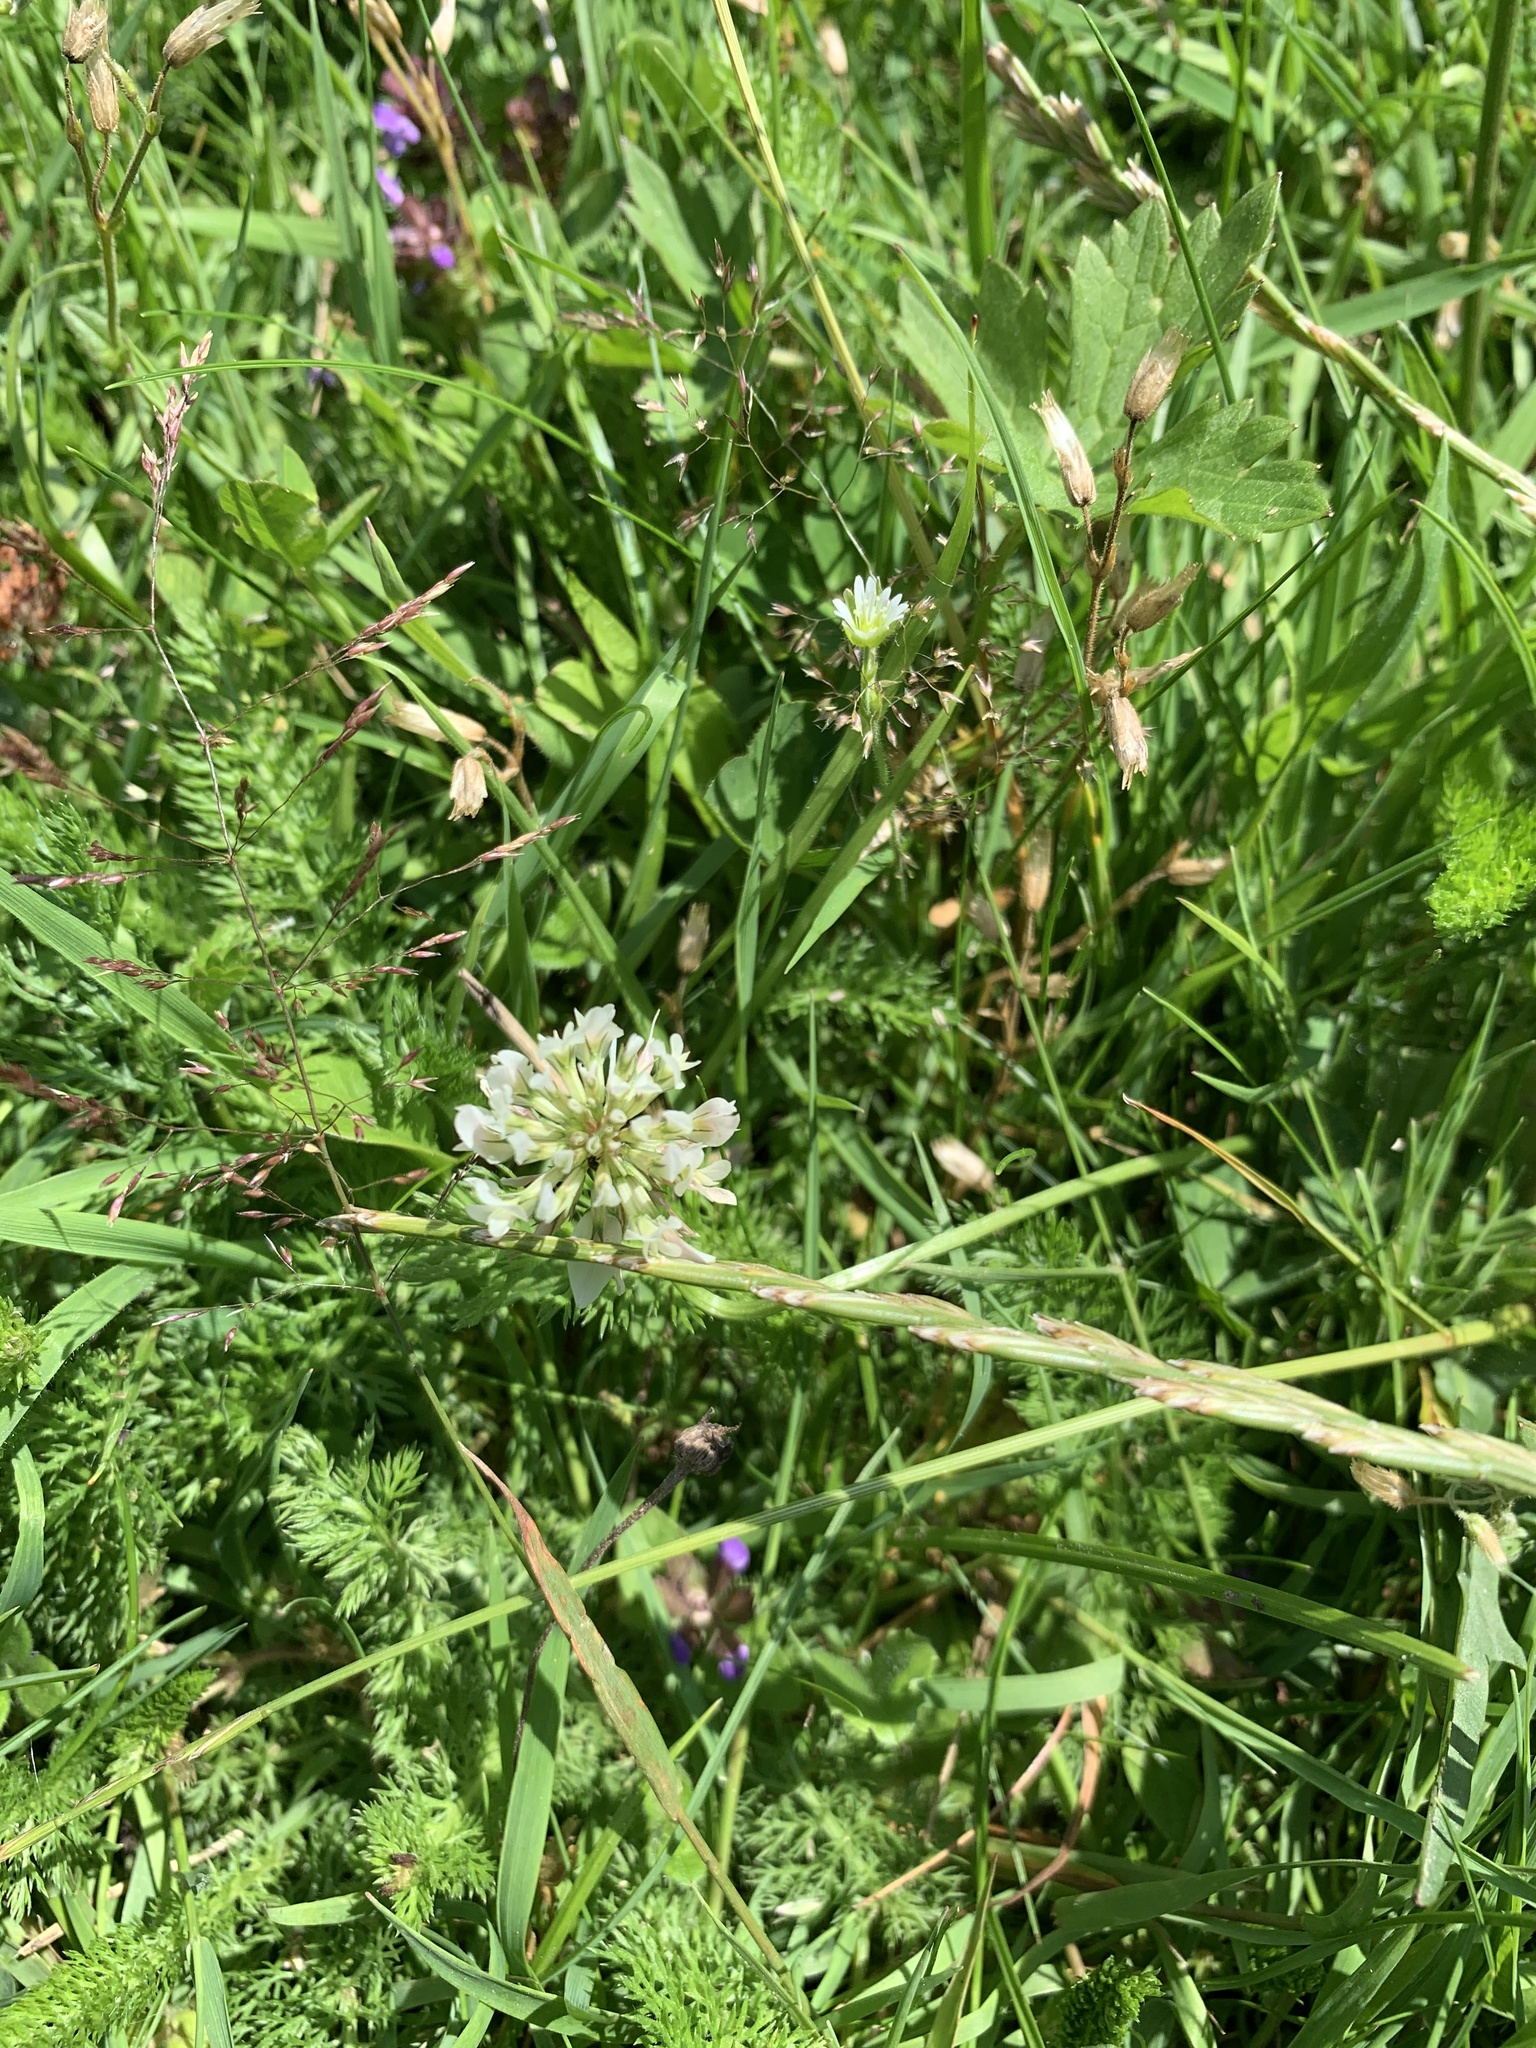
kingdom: Plantae
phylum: Tracheophyta
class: Magnoliopsida
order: Fabales
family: Fabaceae
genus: Trifolium
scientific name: Trifolium repens
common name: White clover
